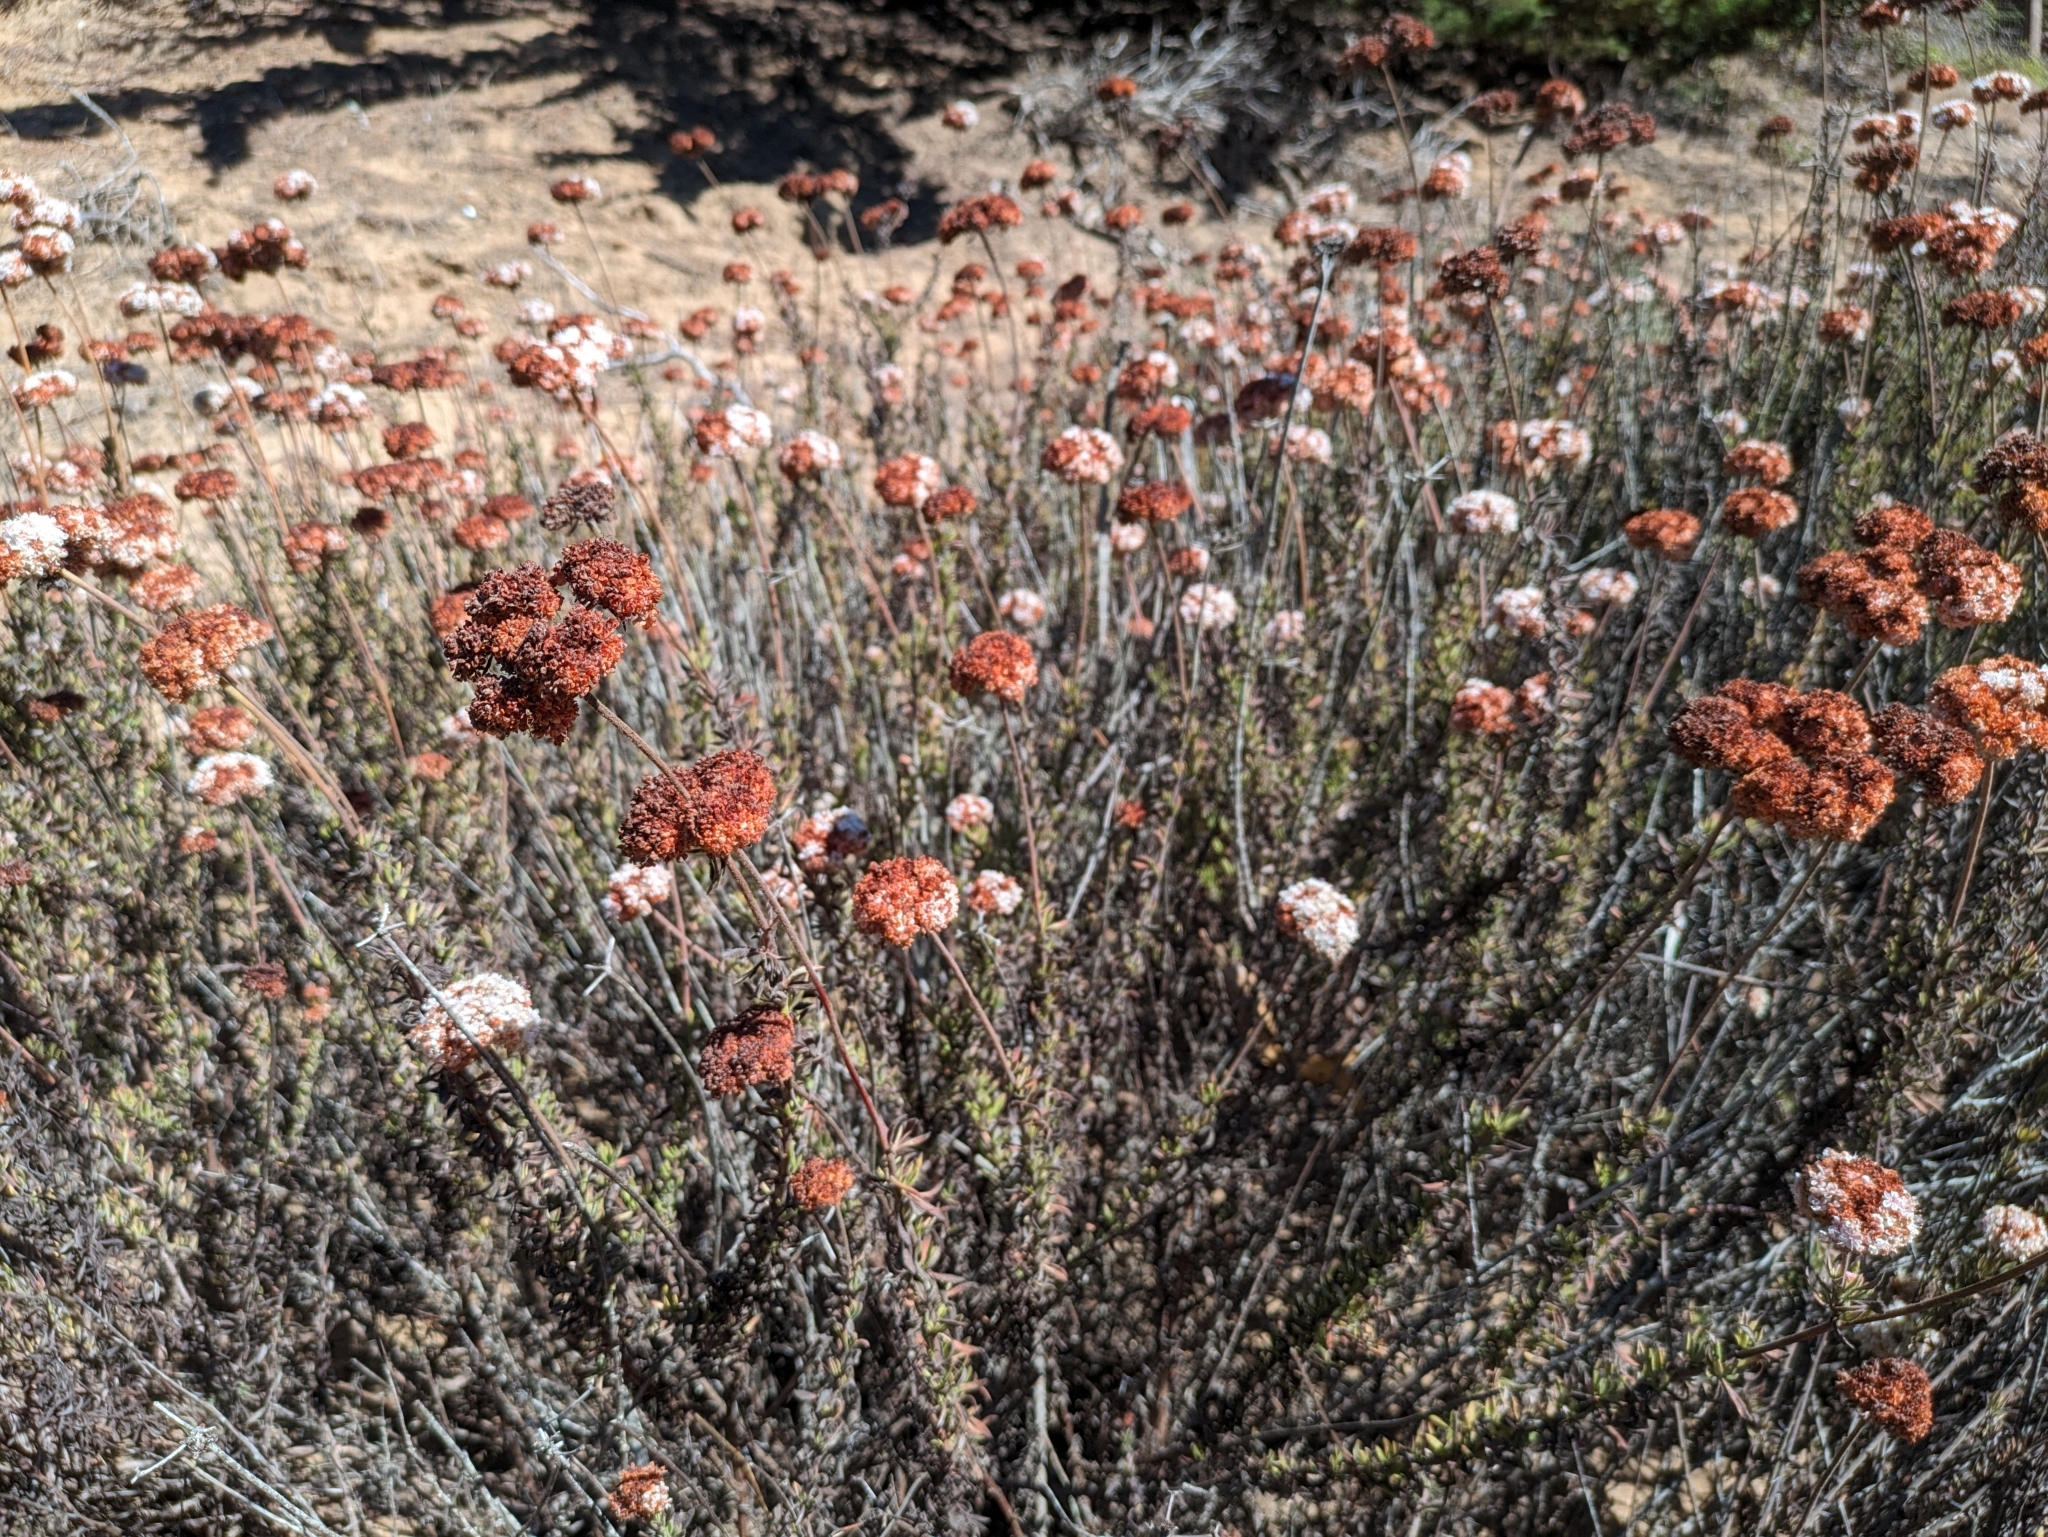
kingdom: Plantae
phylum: Tracheophyta
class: Magnoliopsida
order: Caryophyllales
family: Polygonaceae
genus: Eriogonum
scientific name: Eriogonum fasciculatum
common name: California wild buckwheat
